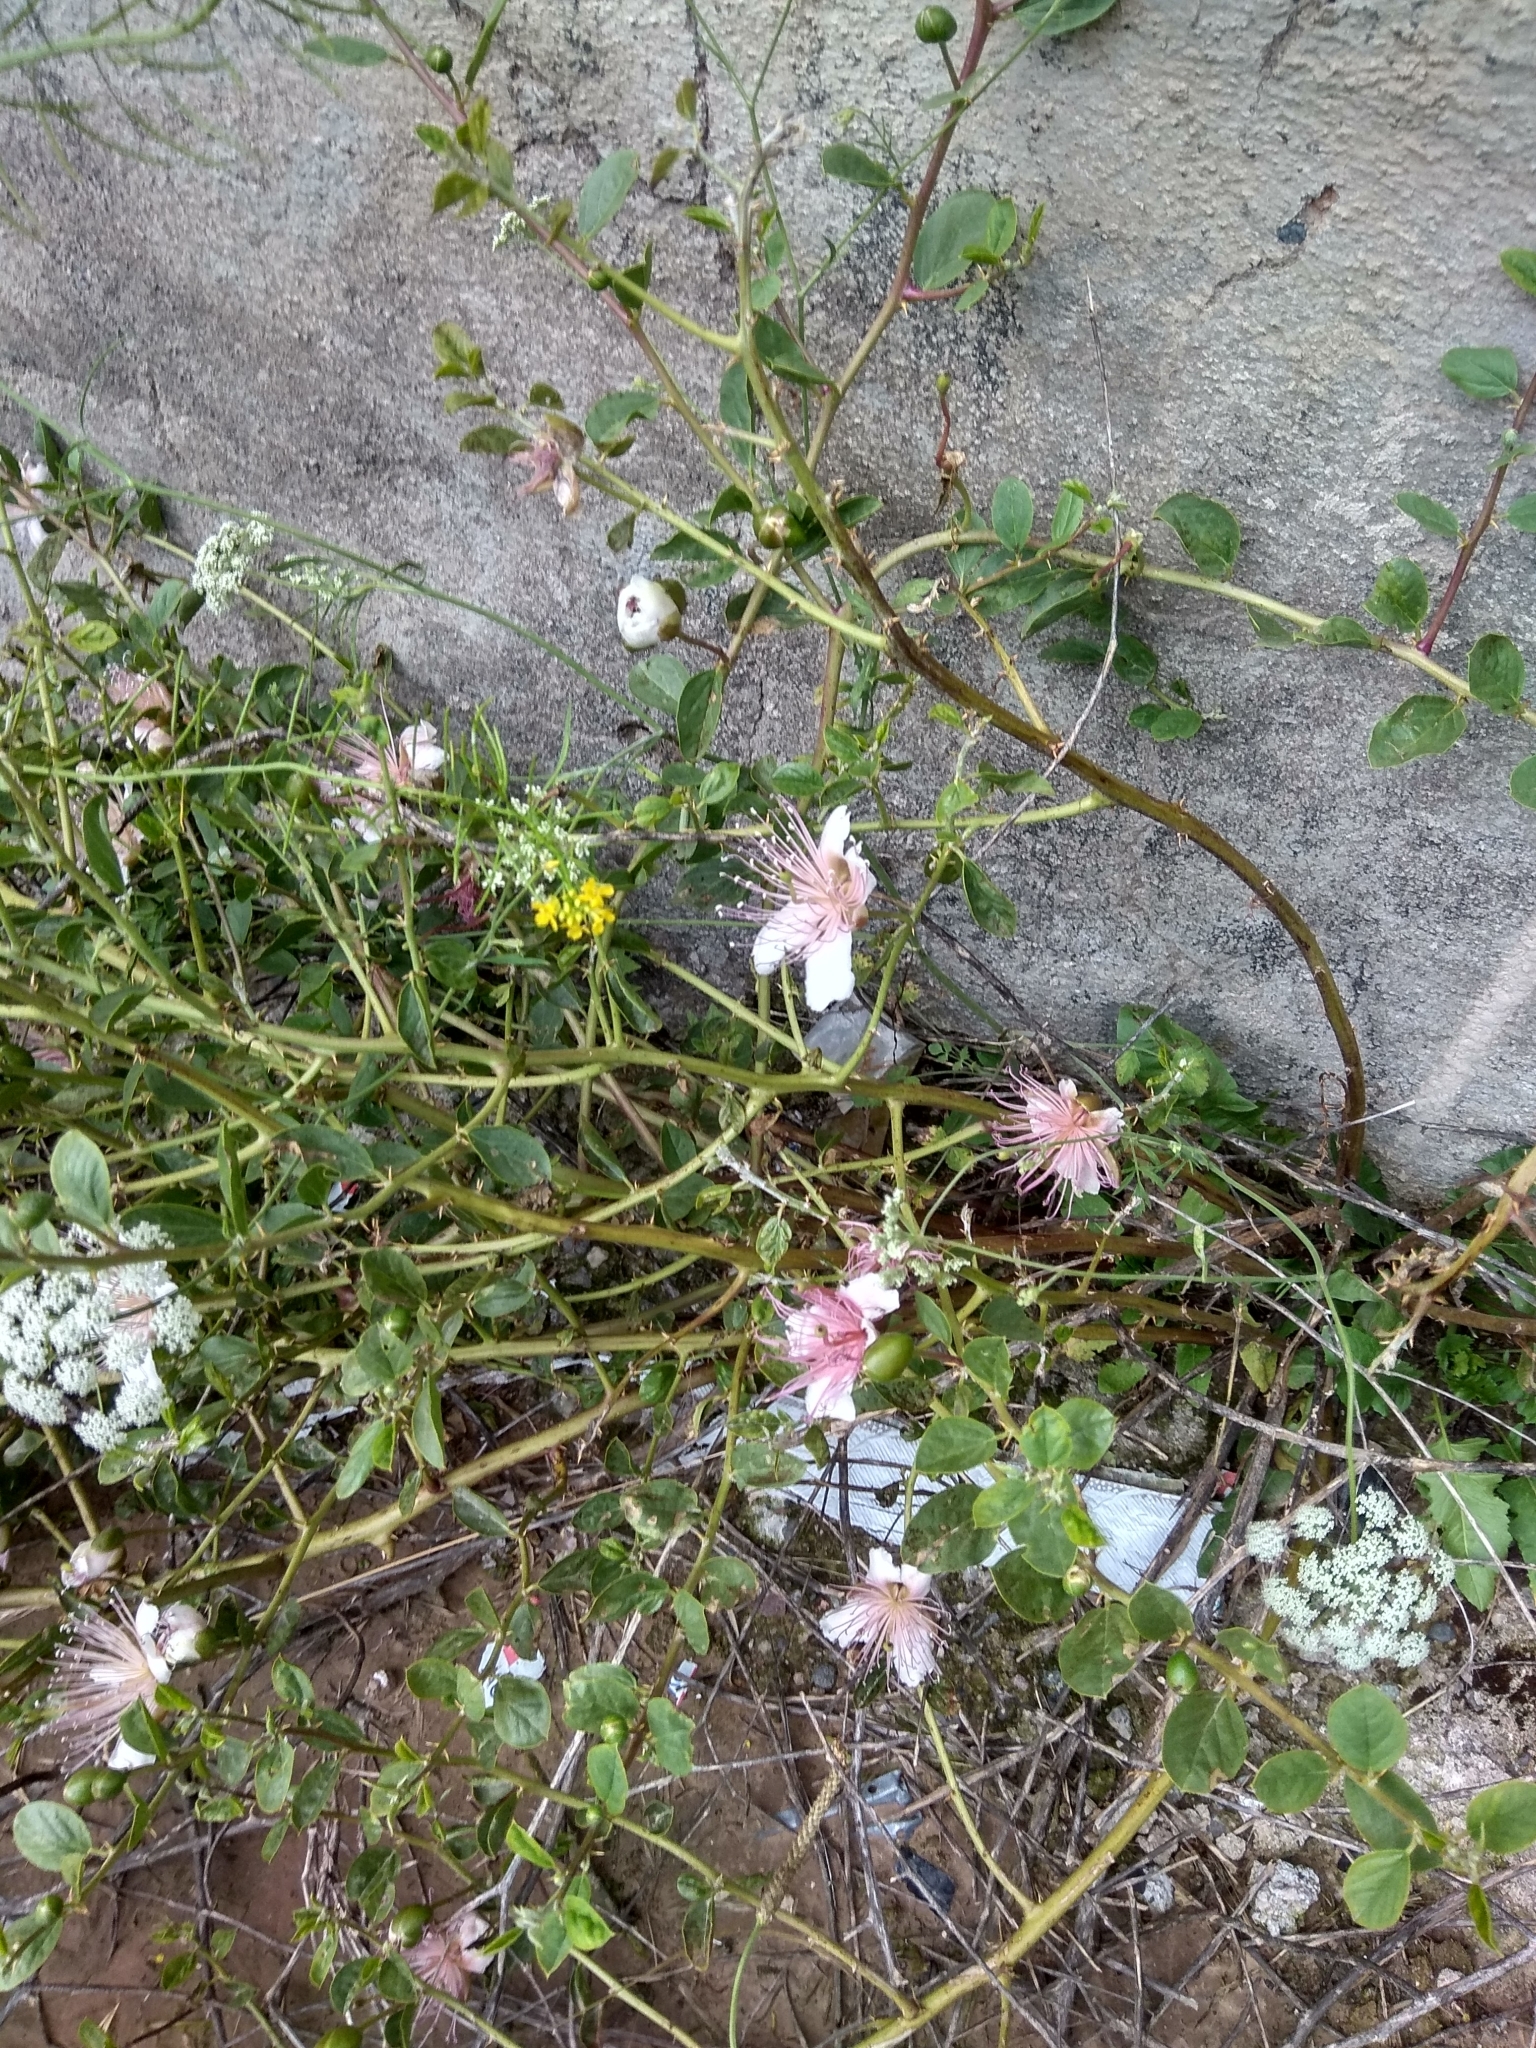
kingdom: Plantae
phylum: Tracheophyta
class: Magnoliopsida
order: Brassicales
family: Capparaceae
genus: Capparis
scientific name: Capparis spinosa
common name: Caper
